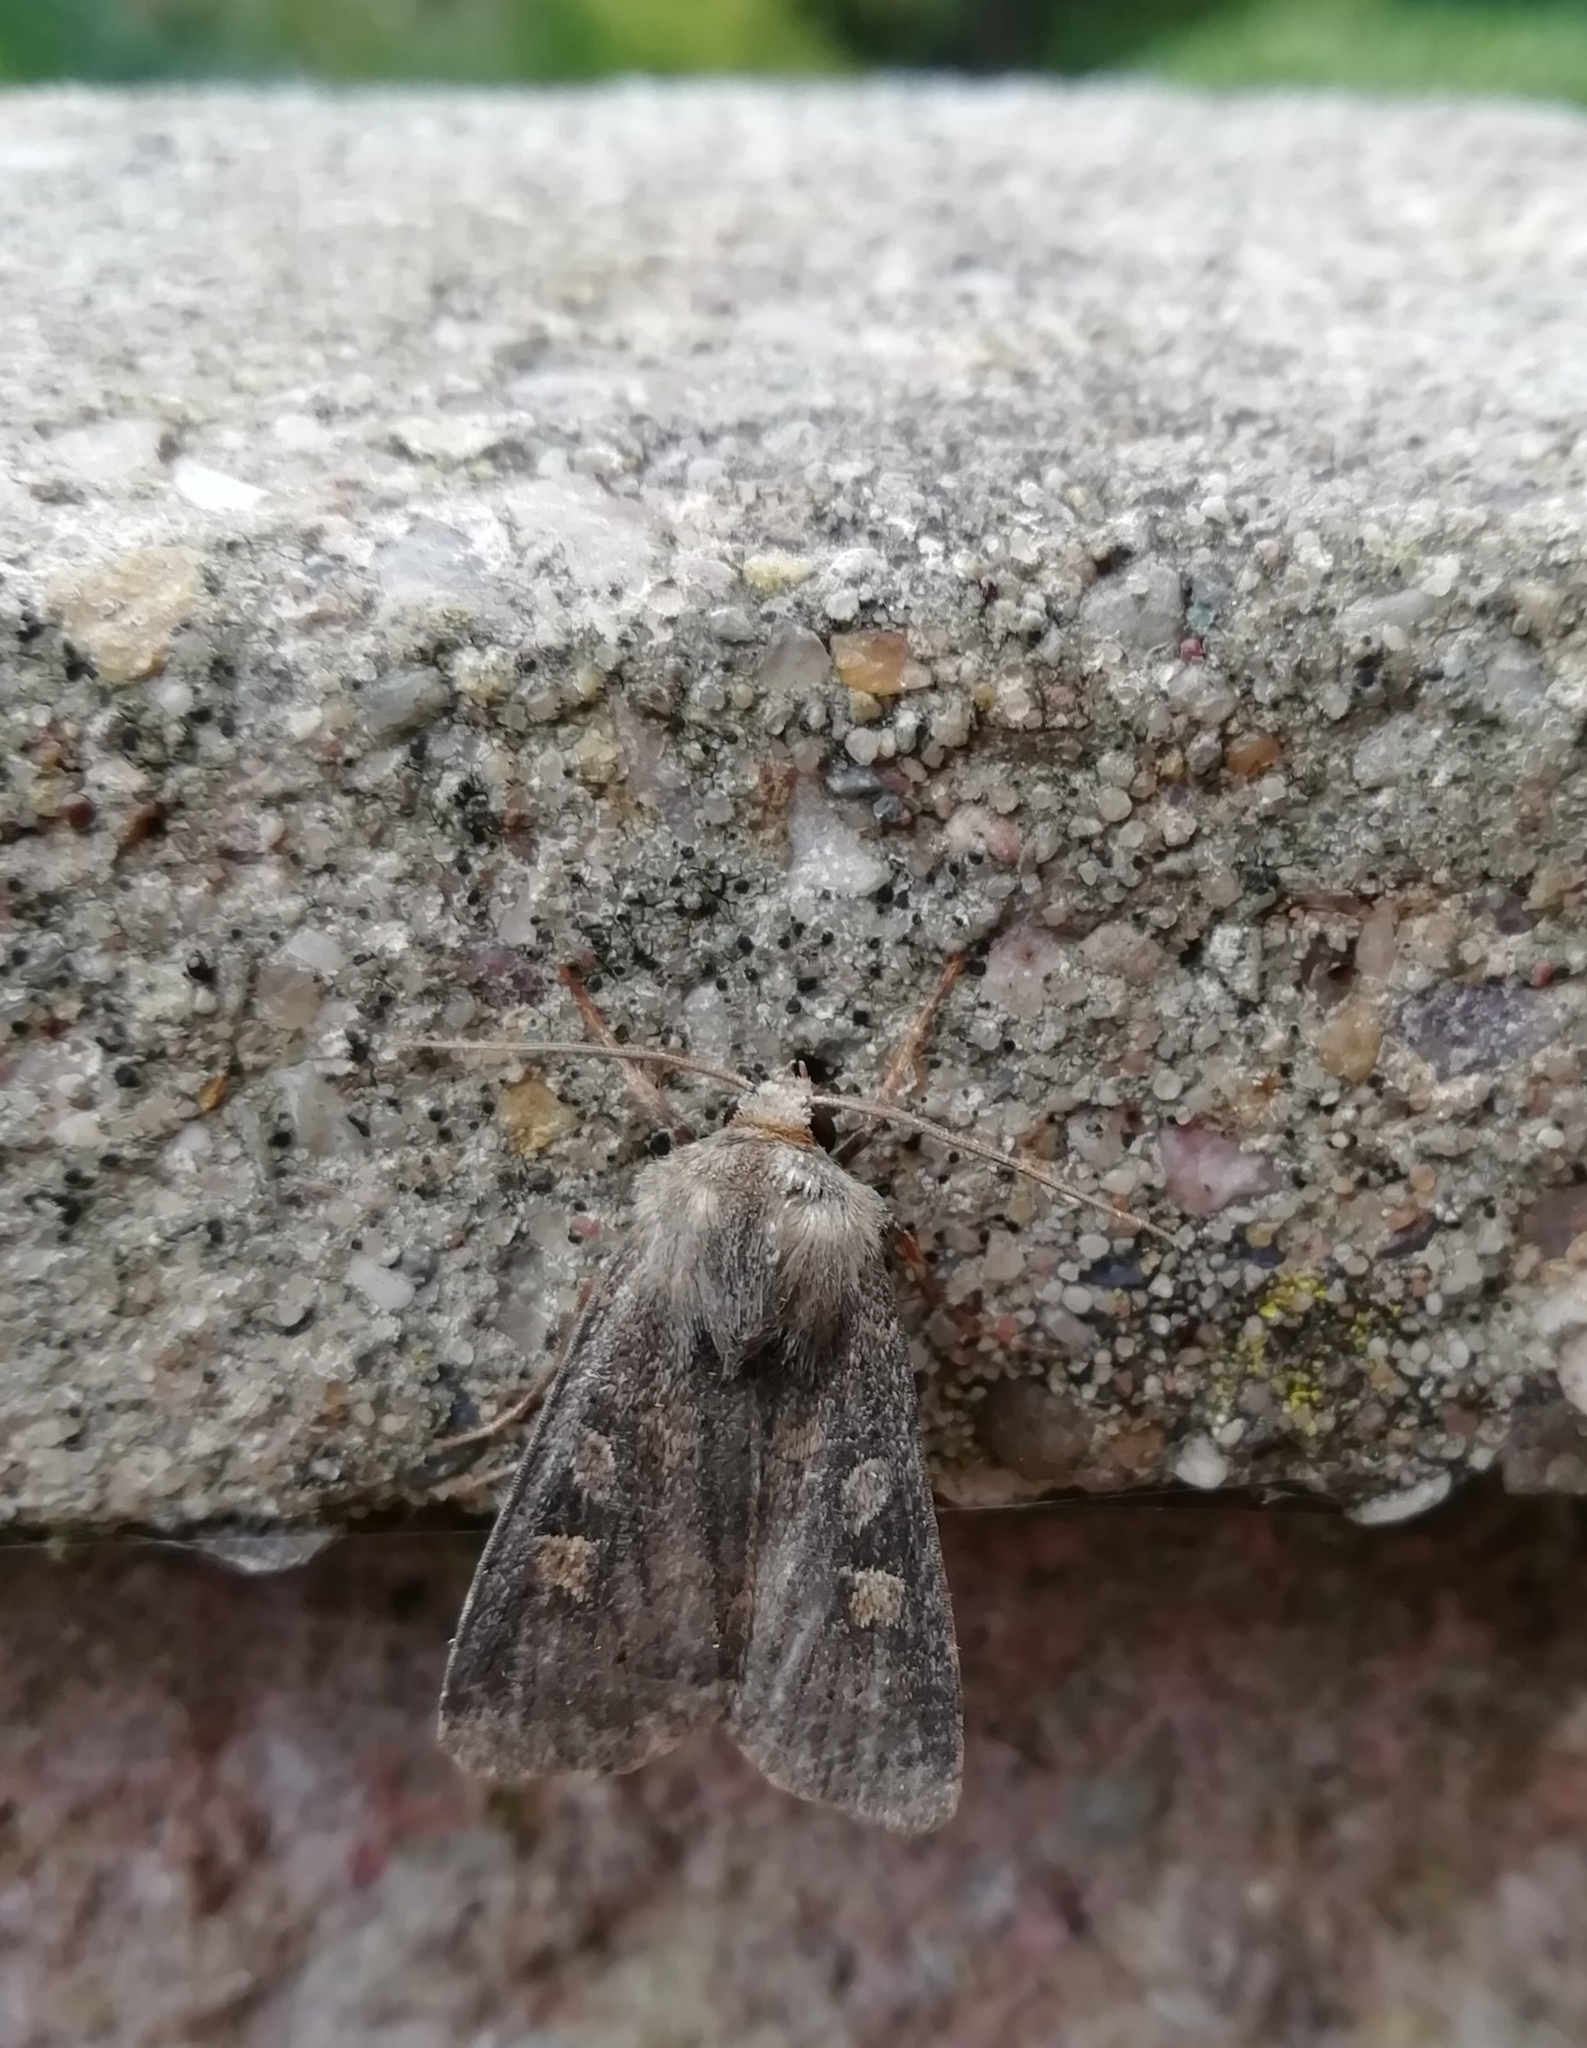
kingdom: Animalia
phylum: Arthropoda
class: Insecta
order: Lepidoptera
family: Noctuidae
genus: Xestia
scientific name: Xestia xanthographa
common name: Square-spot rustic
